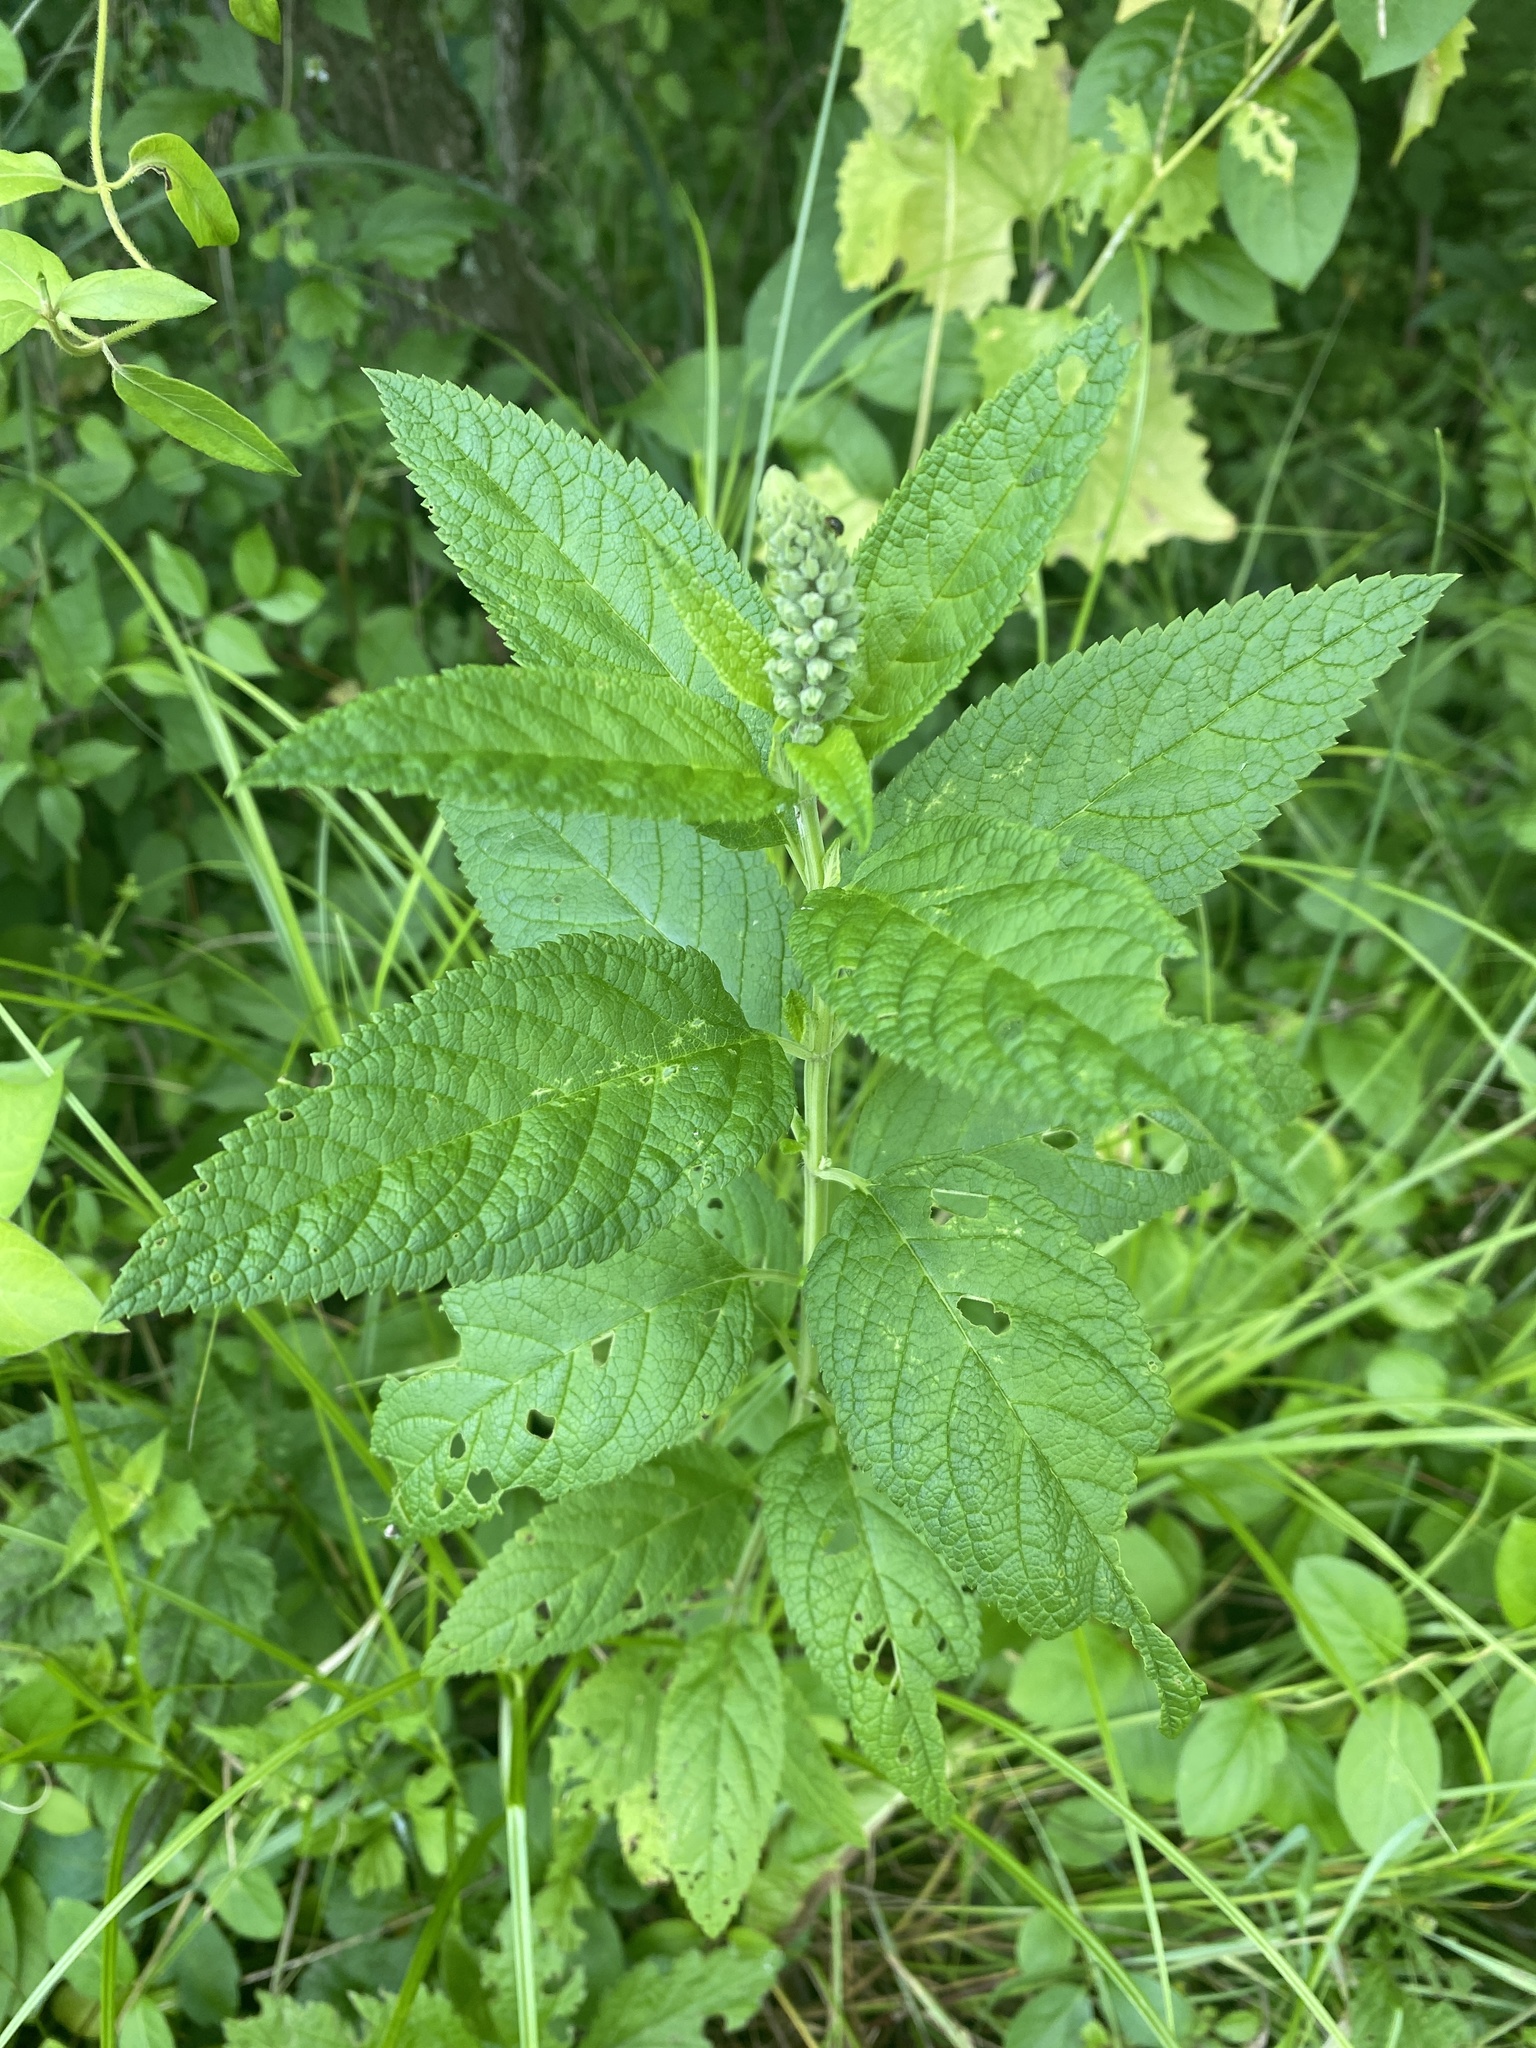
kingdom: Plantae
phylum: Tracheophyta
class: Magnoliopsida
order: Lamiales
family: Lamiaceae
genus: Teucrium
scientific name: Teucrium canadense
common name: American germander
